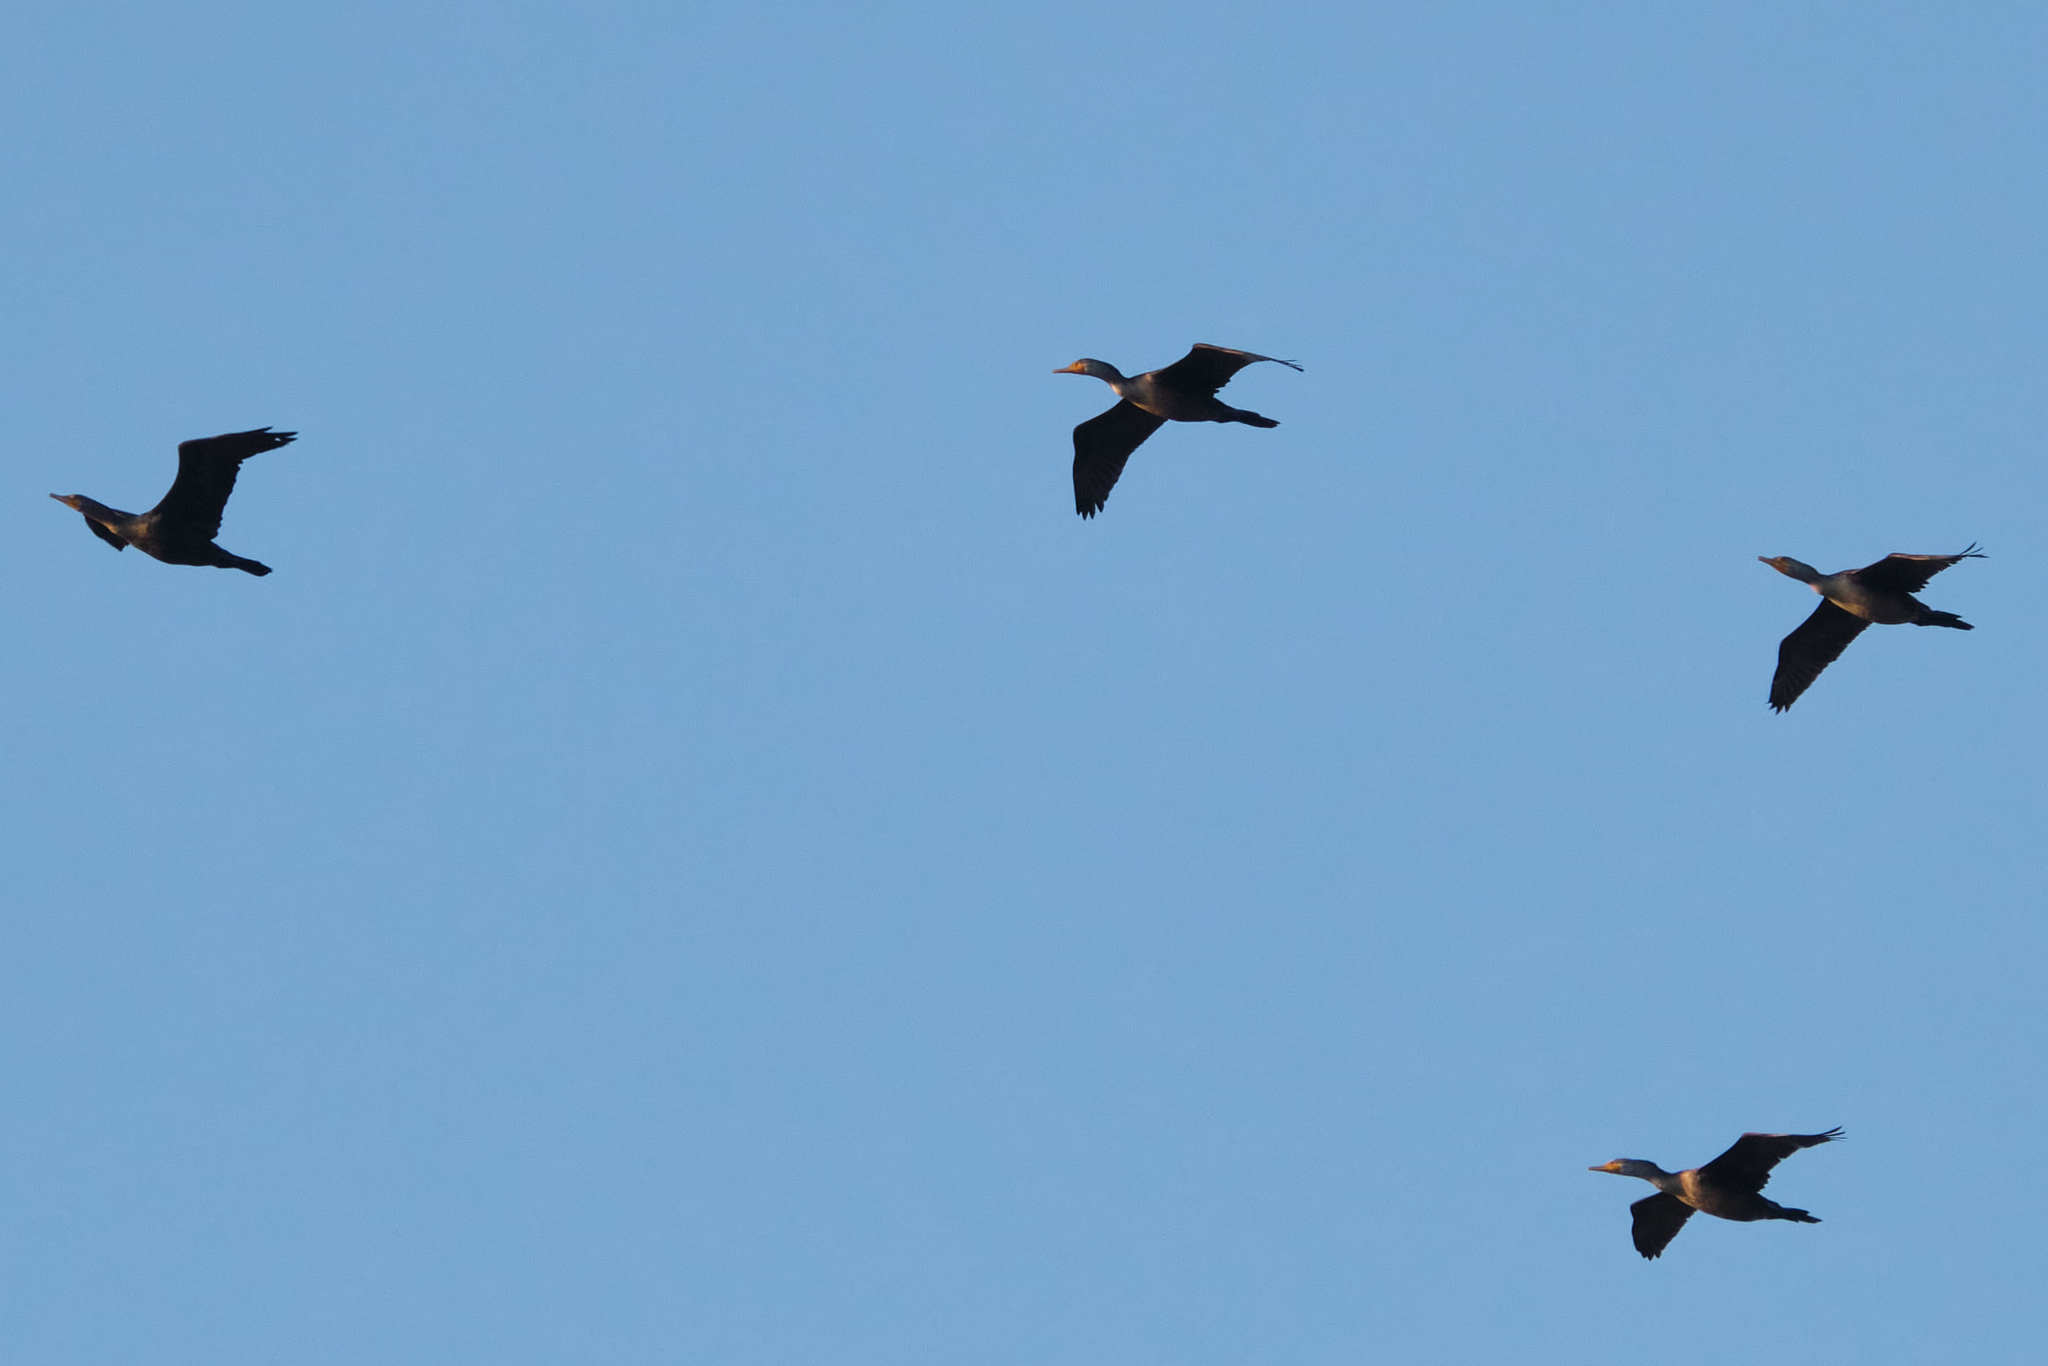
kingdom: Animalia
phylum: Chordata
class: Aves
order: Suliformes
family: Phalacrocoracidae
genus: Phalacrocorax
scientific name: Phalacrocorax auritus
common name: Double-crested cormorant
